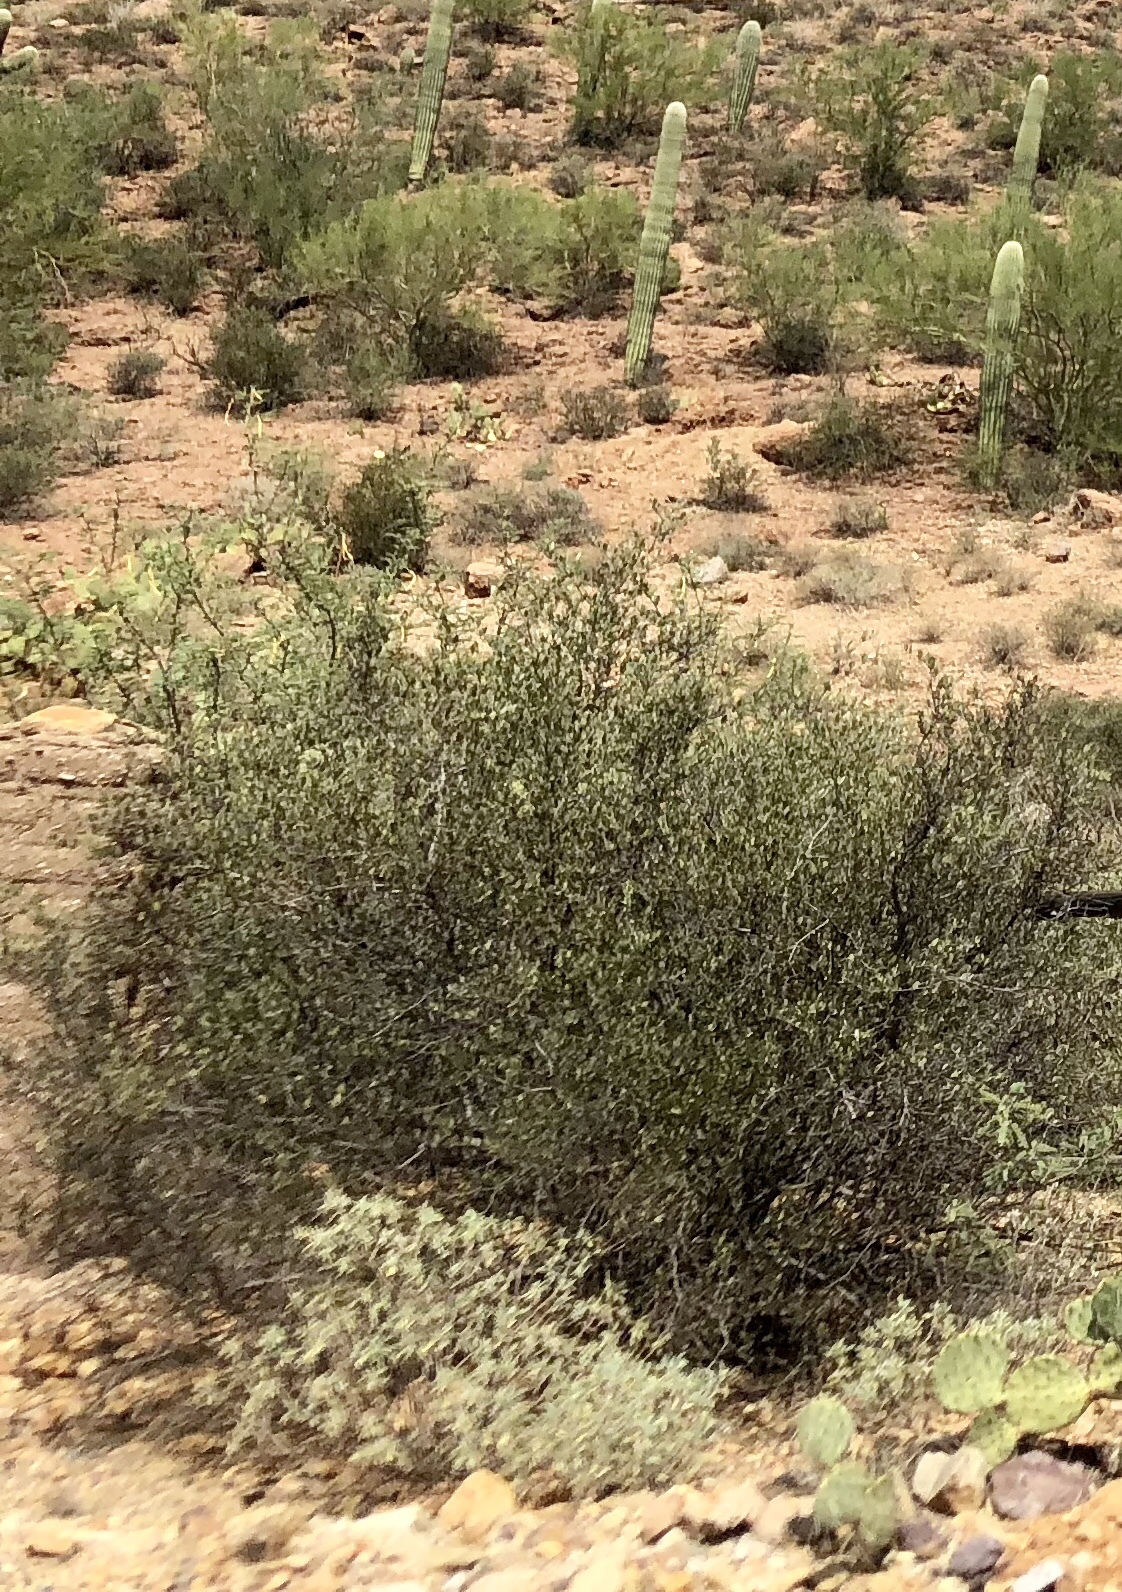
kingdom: Plantae
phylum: Tracheophyta
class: Magnoliopsida
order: Caryophyllales
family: Simmondsiaceae
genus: Simmondsia
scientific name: Simmondsia chinensis
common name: Jojoba
